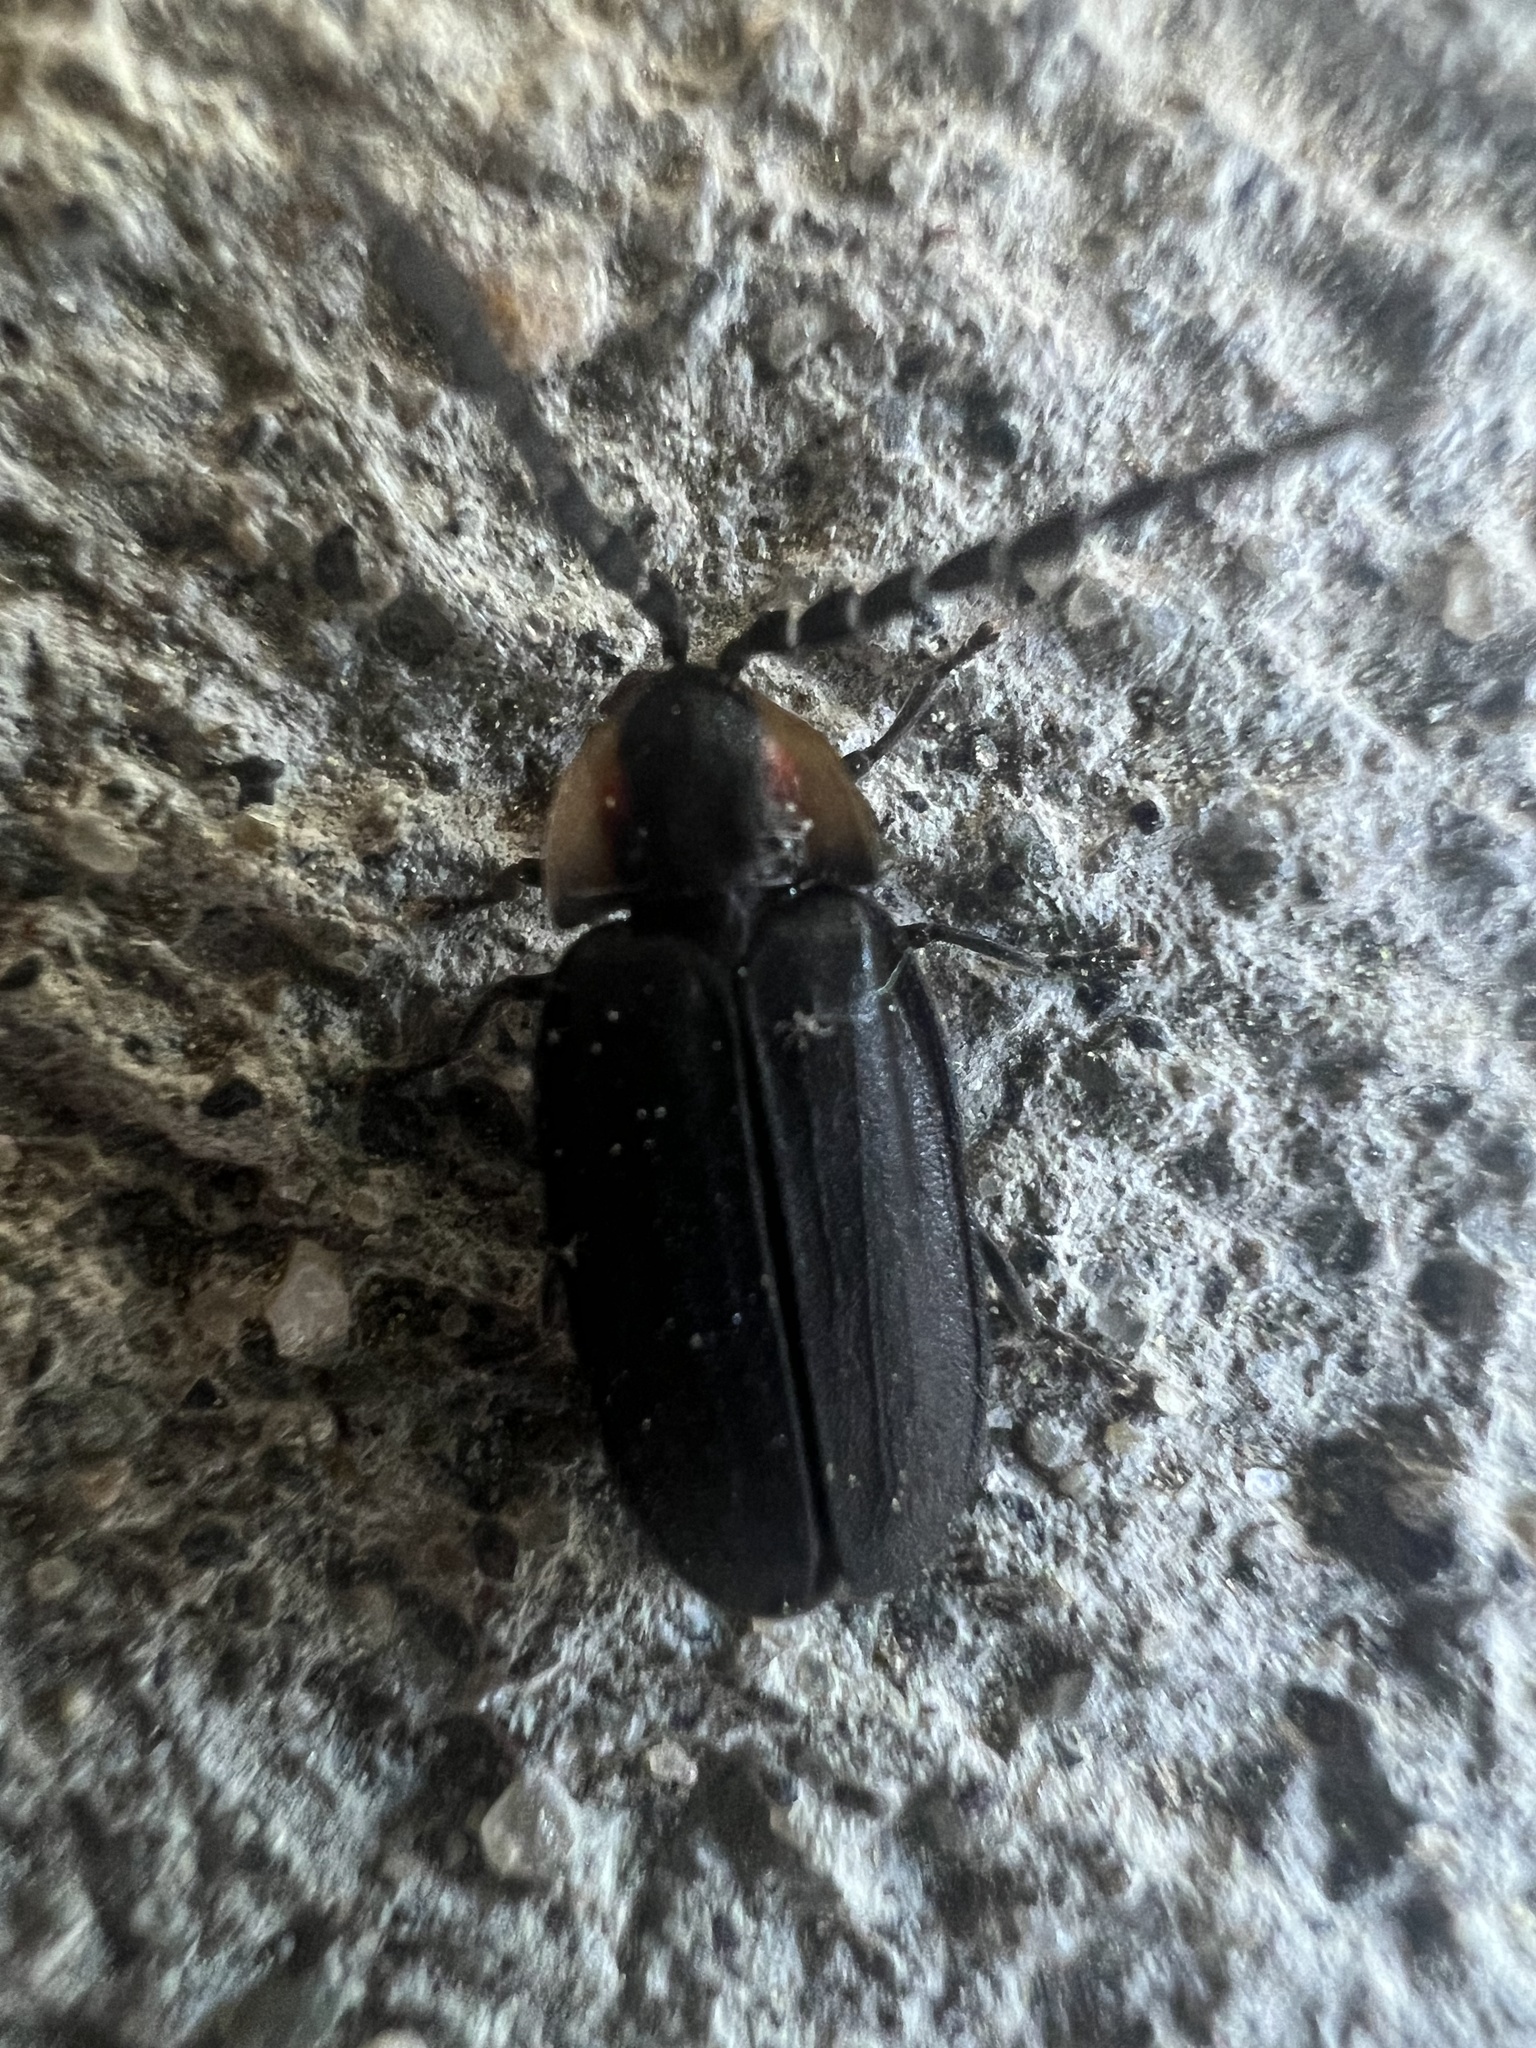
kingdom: Animalia
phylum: Arthropoda
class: Insecta
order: Coleoptera
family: Lampyridae
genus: Lucidota
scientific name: Lucidota atra
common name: Black firefly
